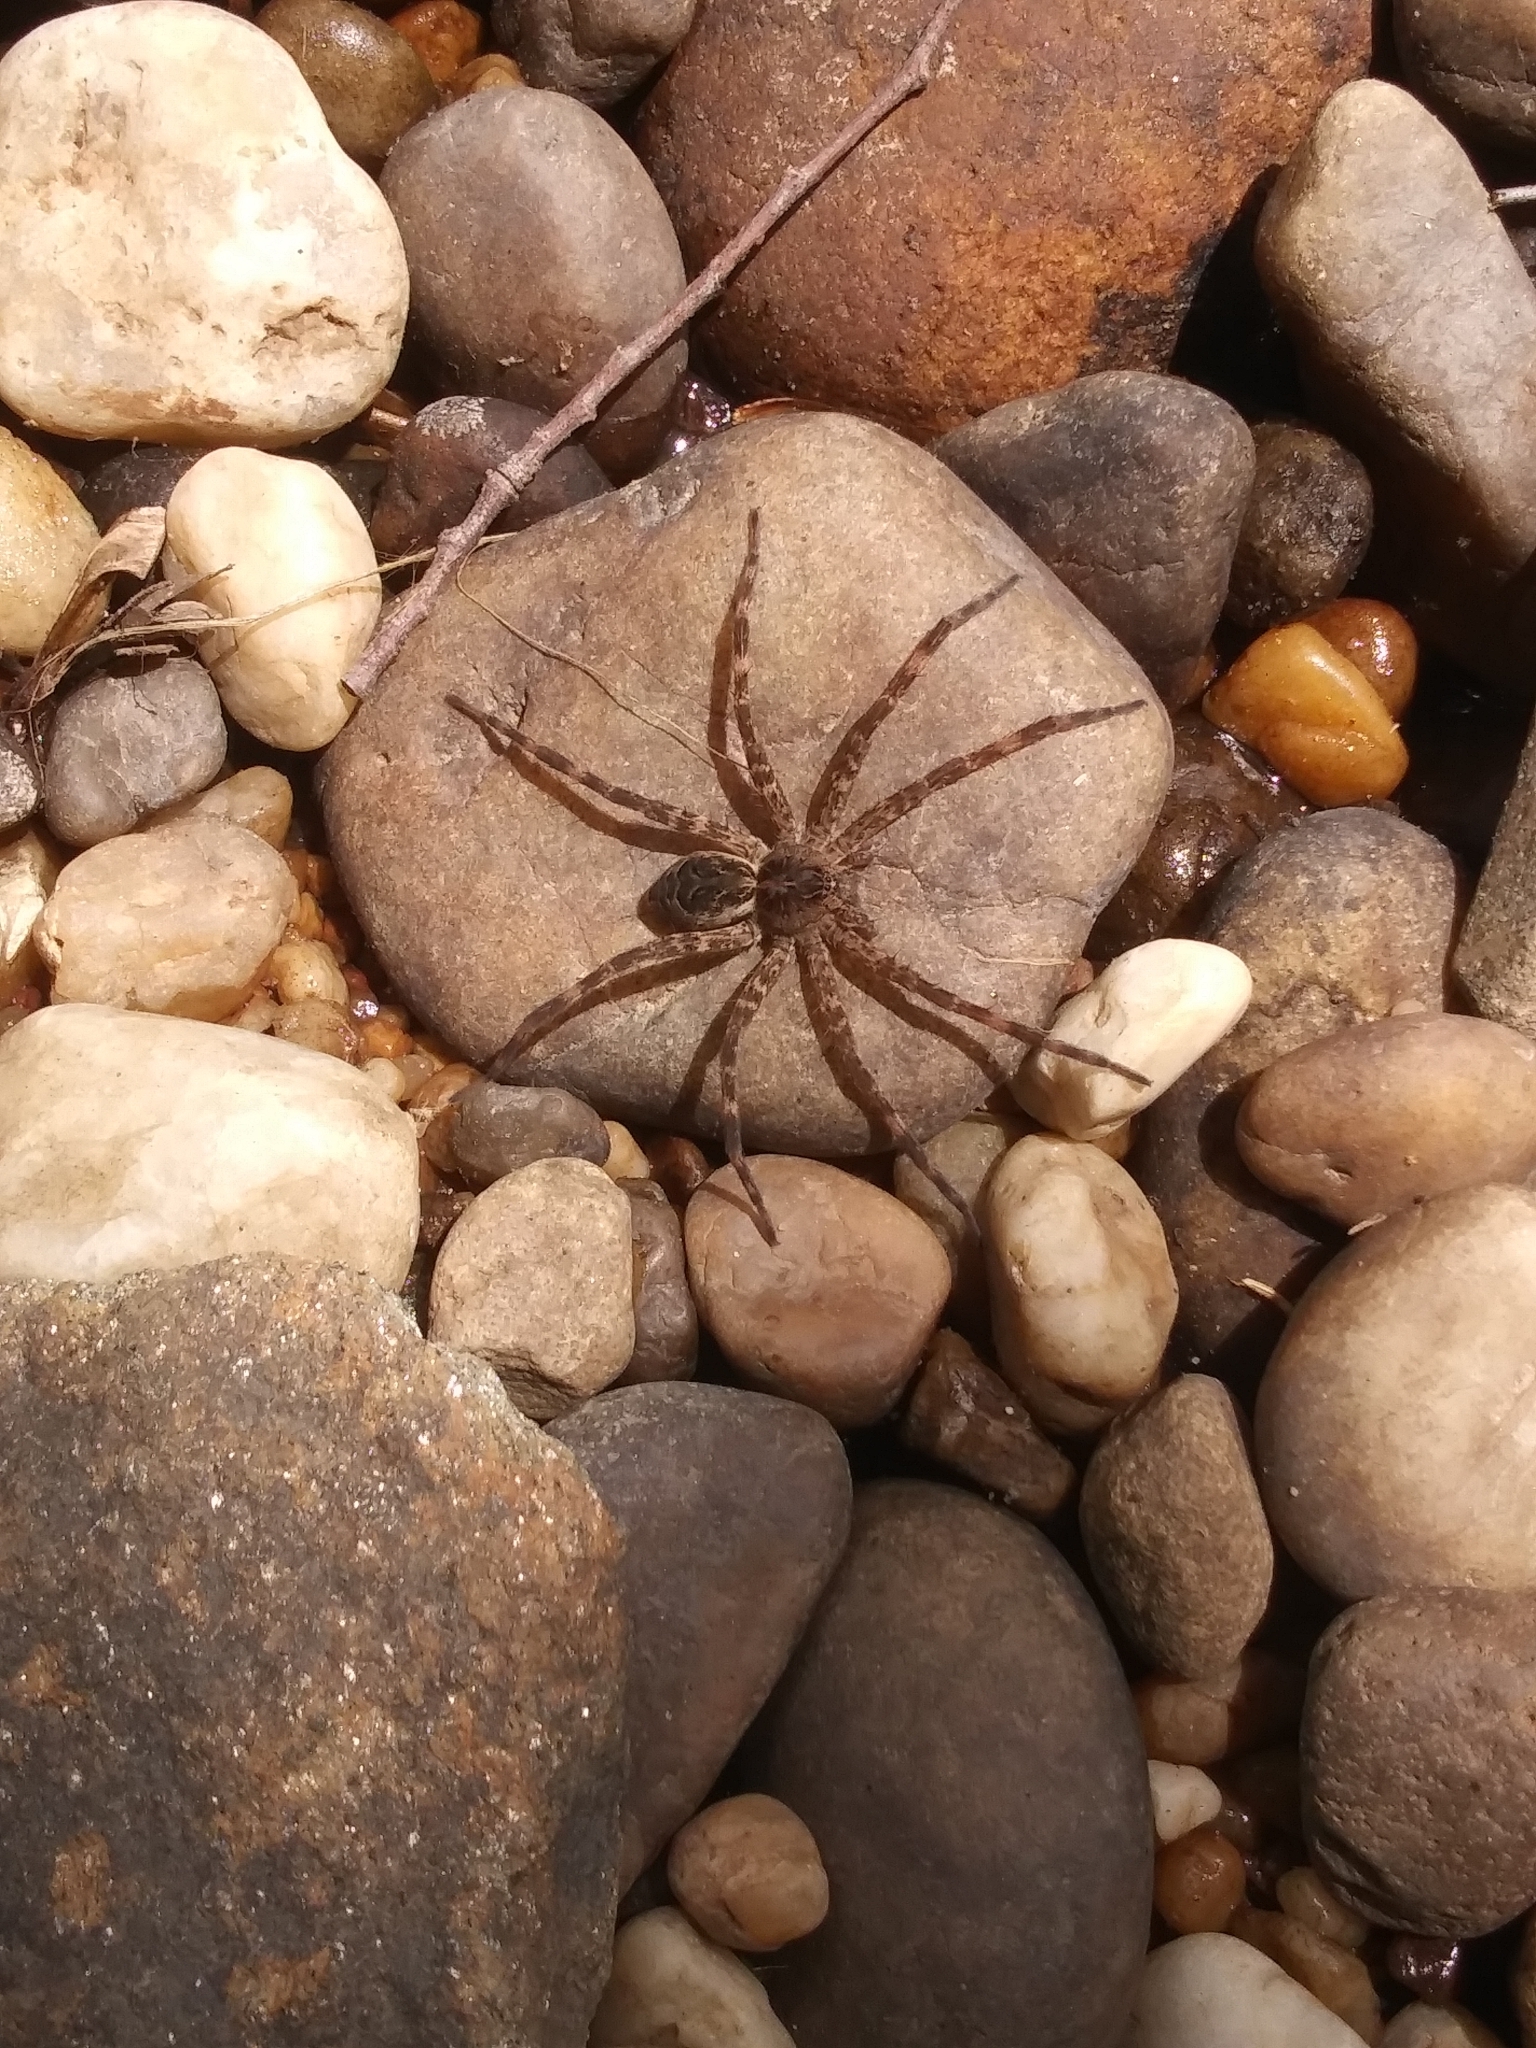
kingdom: Animalia
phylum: Arthropoda
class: Arachnida
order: Araneae
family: Pisauridae
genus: Dolomedes
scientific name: Dolomedes scriptus
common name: Striped fishing spider
